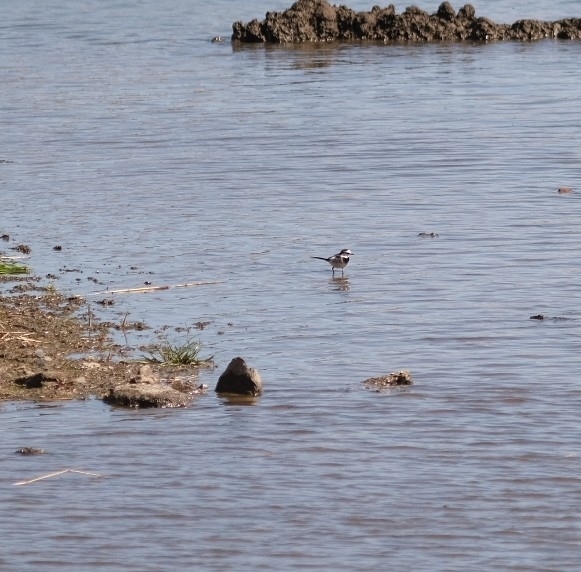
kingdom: Animalia
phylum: Chordata
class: Aves
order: Passeriformes
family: Motacillidae
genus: Motacilla
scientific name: Motacilla alba
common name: White wagtail
